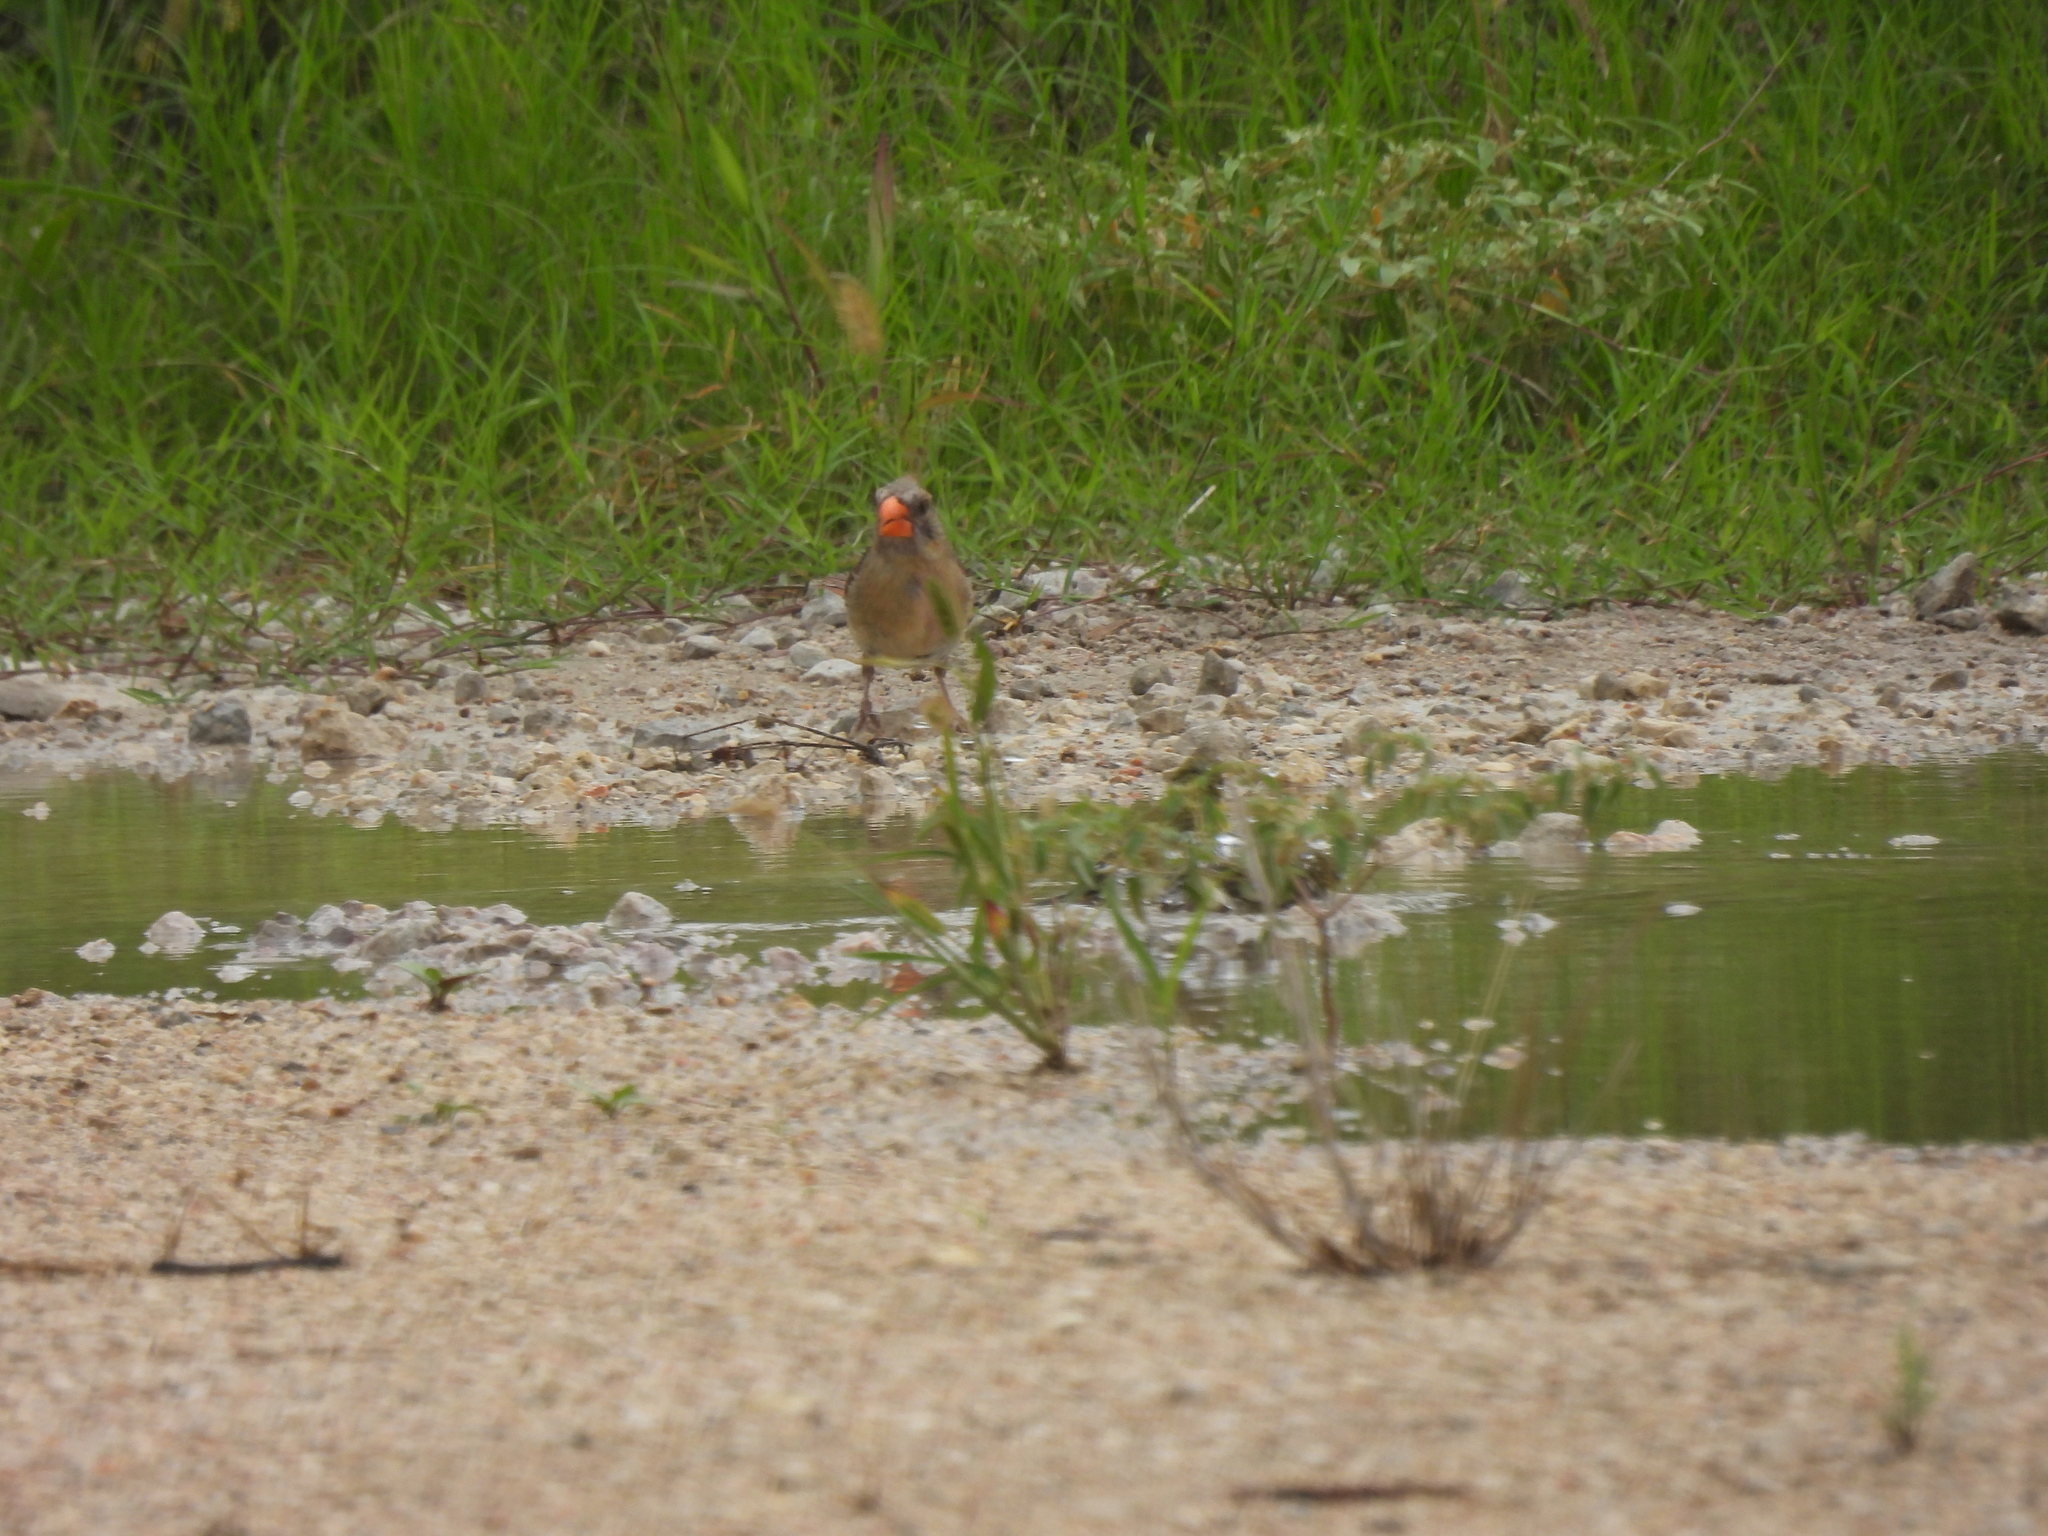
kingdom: Animalia
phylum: Chordata
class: Aves
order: Passeriformes
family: Cardinalidae
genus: Cardinalis
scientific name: Cardinalis cardinalis
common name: Northern cardinal
